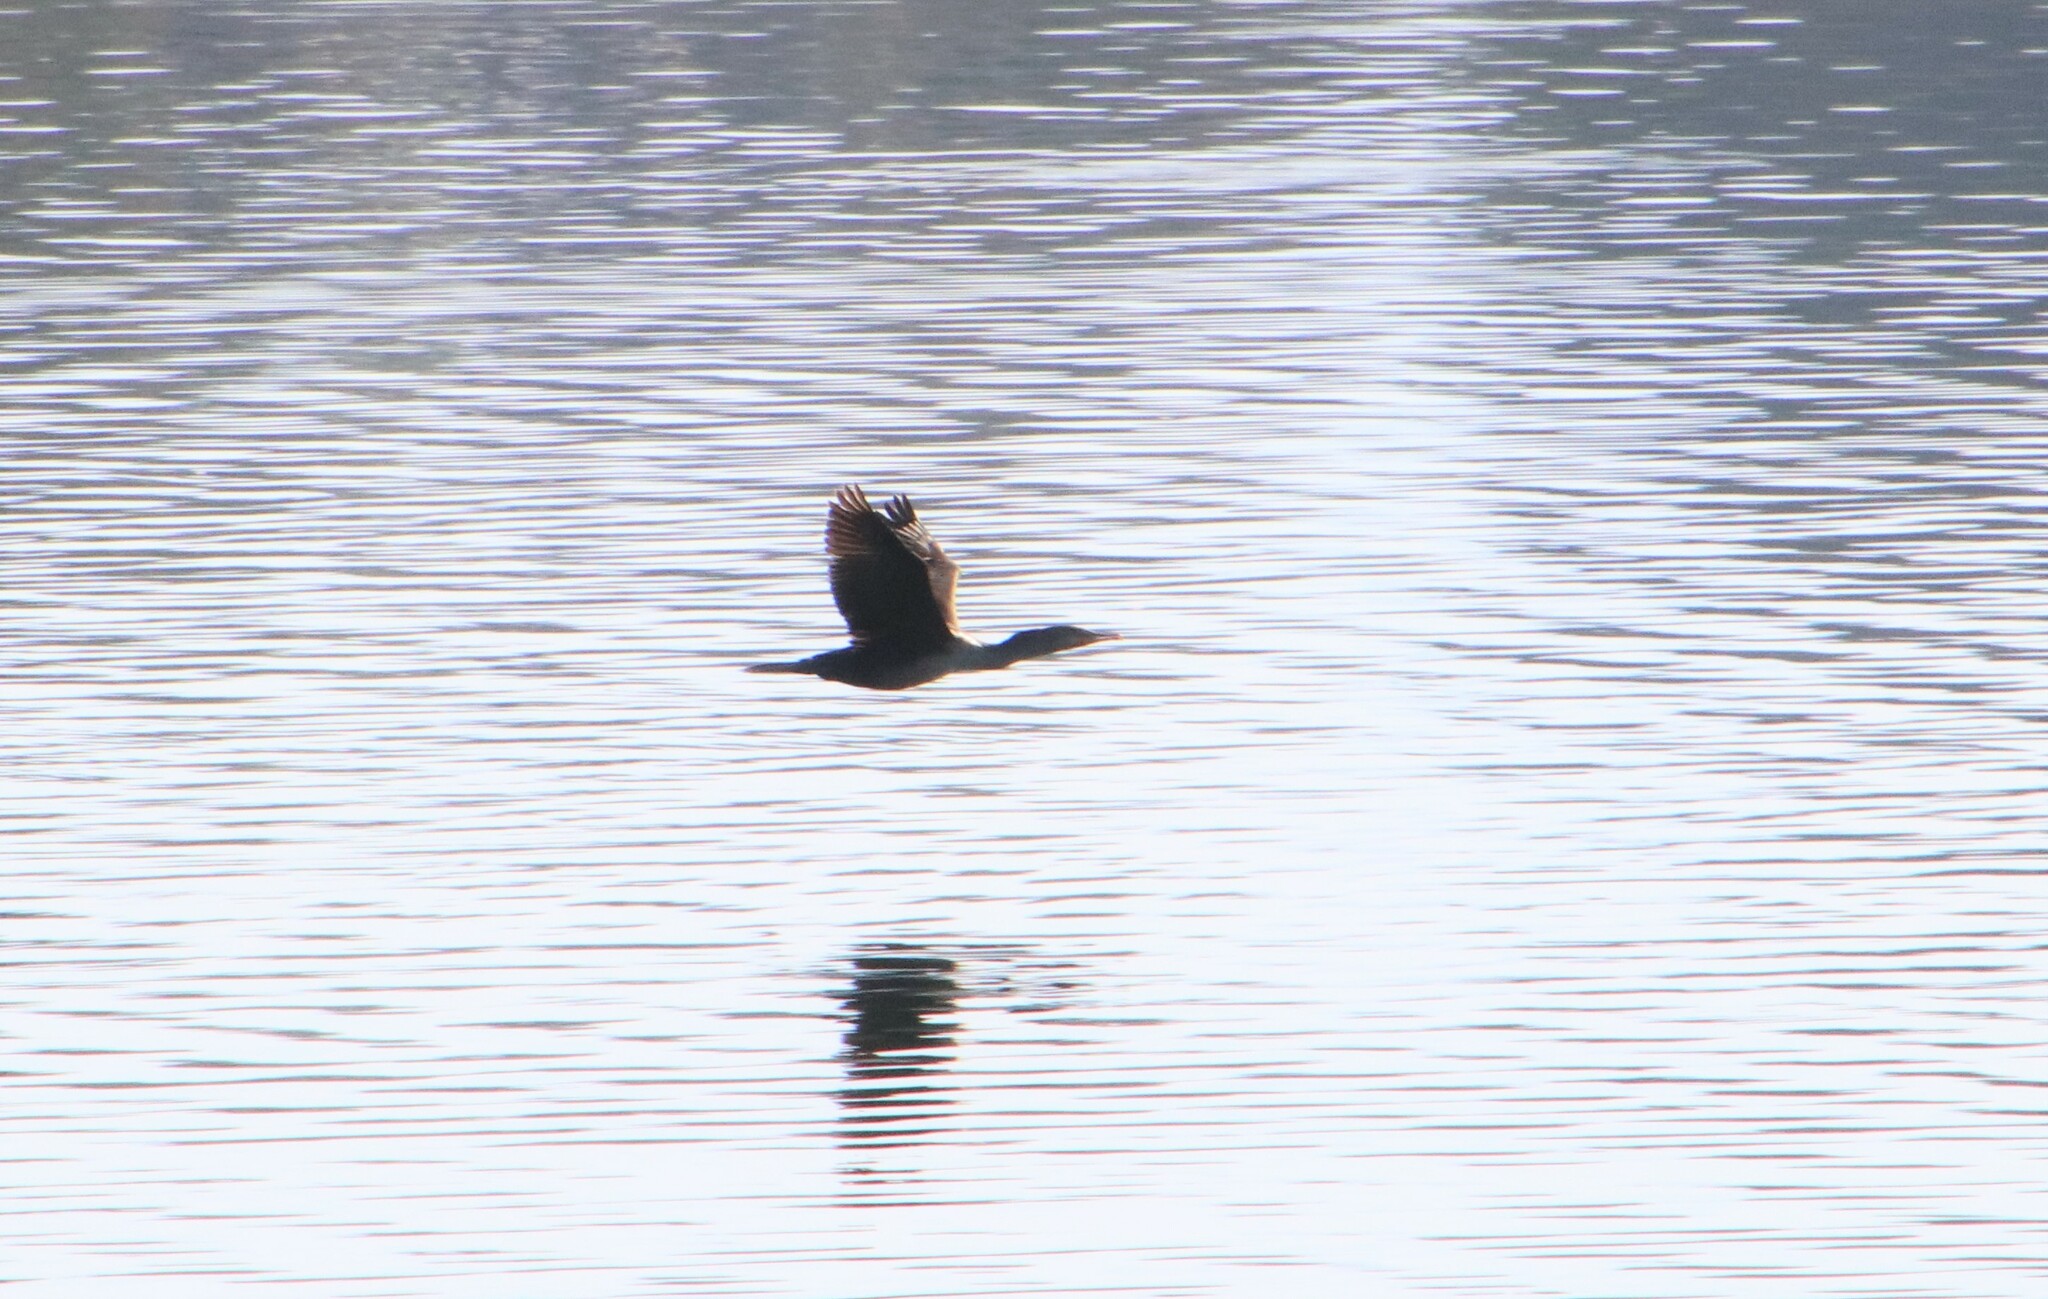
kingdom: Animalia
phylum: Chordata
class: Aves
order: Suliformes
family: Phalacrocoracidae
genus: Phalacrocorax
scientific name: Phalacrocorax auritus
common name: Double-crested cormorant
